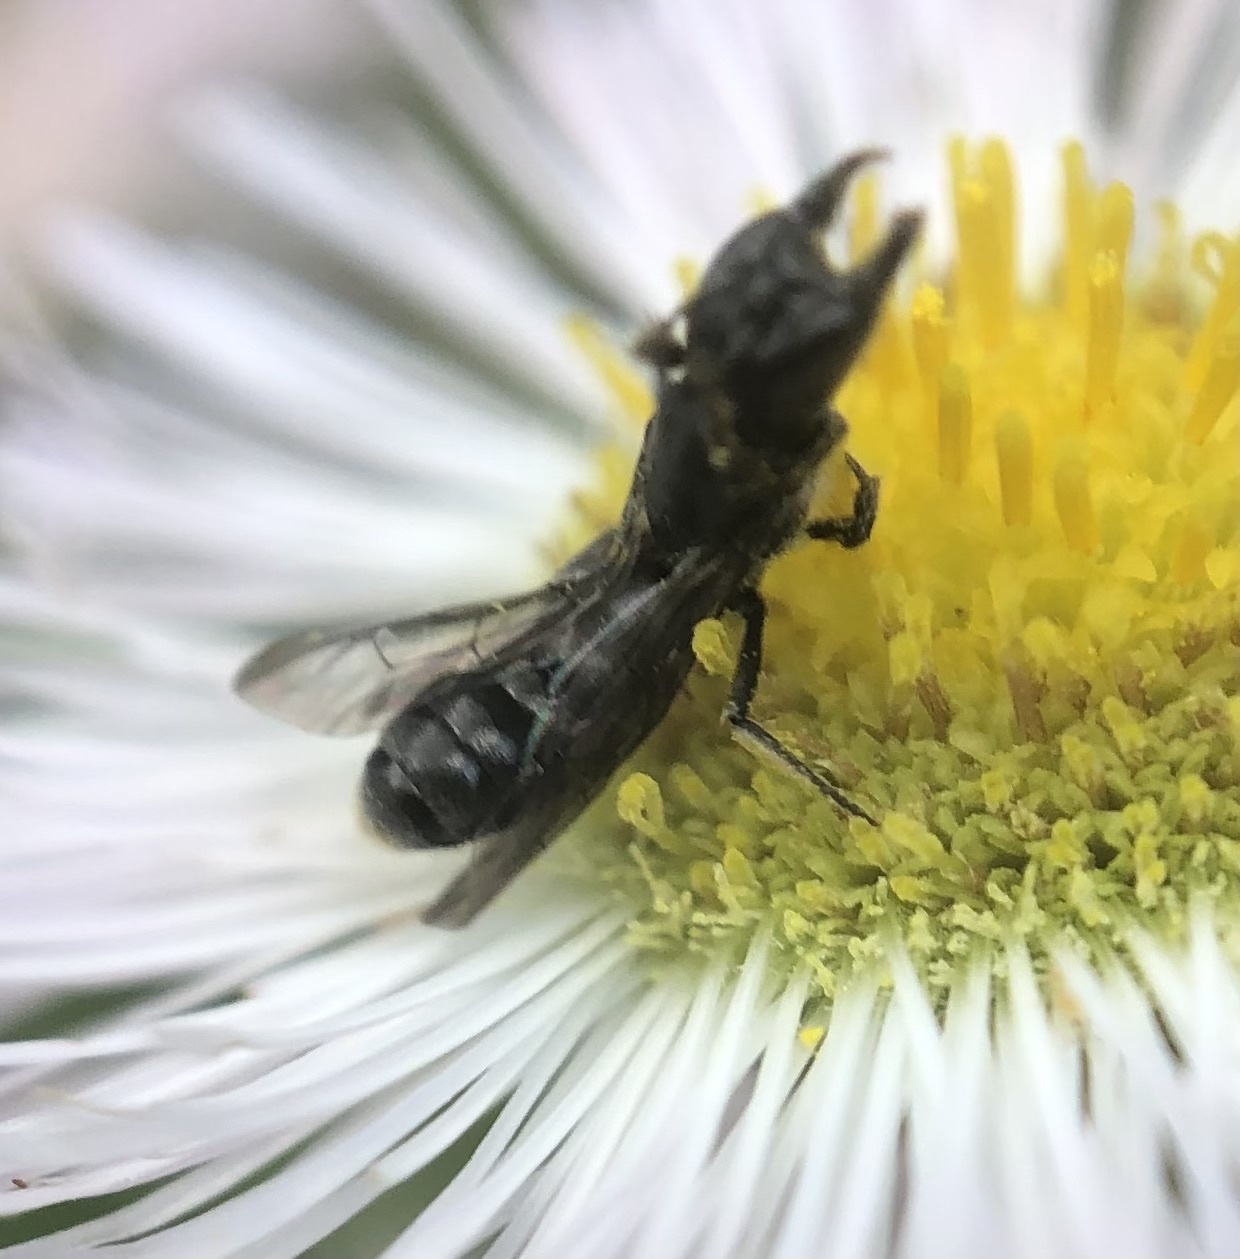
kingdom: Animalia
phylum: Arthropoda
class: Insecta
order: Hymenoptera
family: Megachilidae
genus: Chelostoma
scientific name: Chelostoma philadelphi
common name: Mock-orange scissor bee
